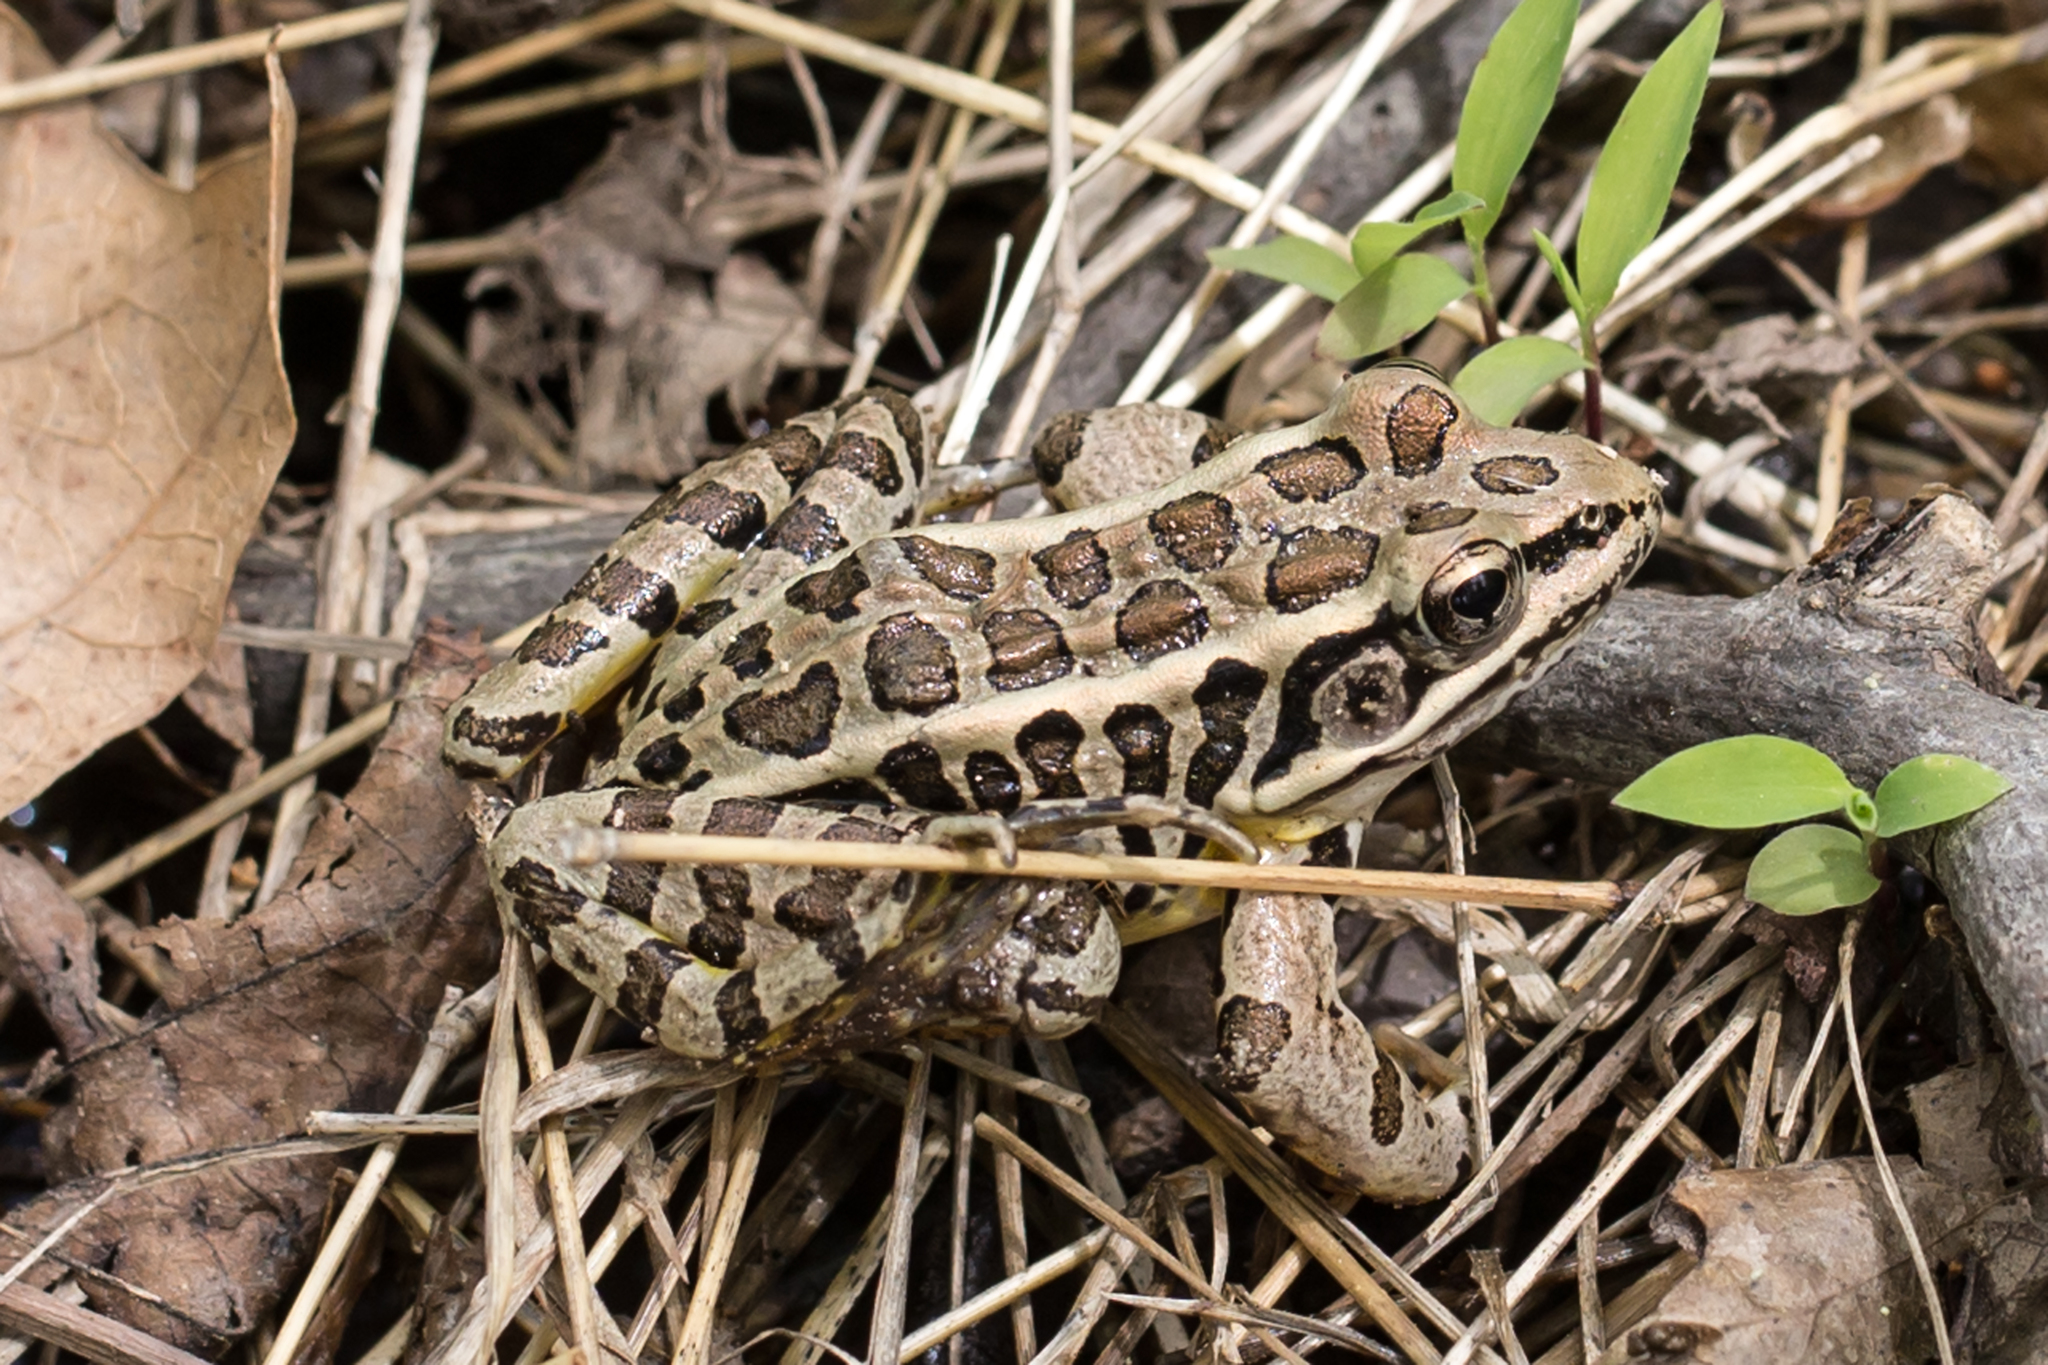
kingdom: Animalia
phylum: Chordata
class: Amphibia
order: Anura
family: Ranidae
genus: Lithobates
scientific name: Lithobates palustris
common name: Pickerel frog
